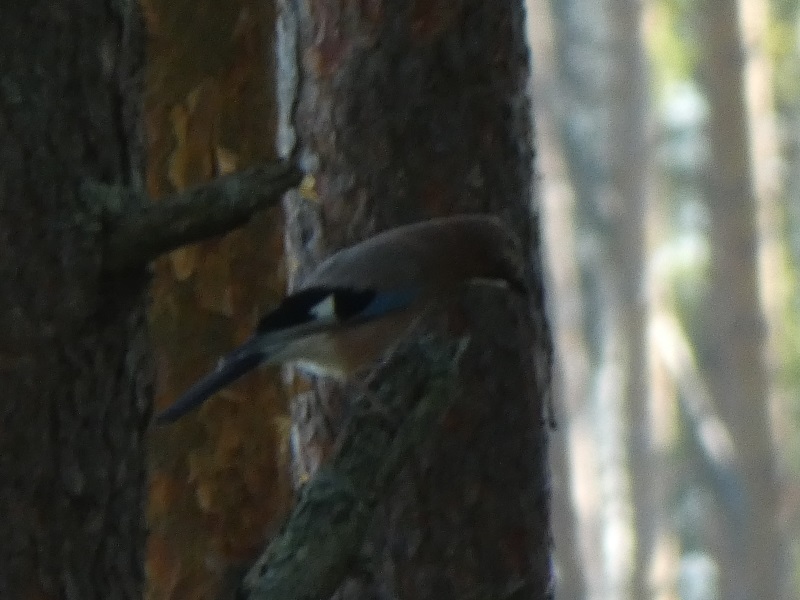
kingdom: Animalia
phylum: Chordata
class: Aves
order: Passeriformes
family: Corvidae
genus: Garrulus
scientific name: Garrulus glandarius
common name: Eurasian jay
